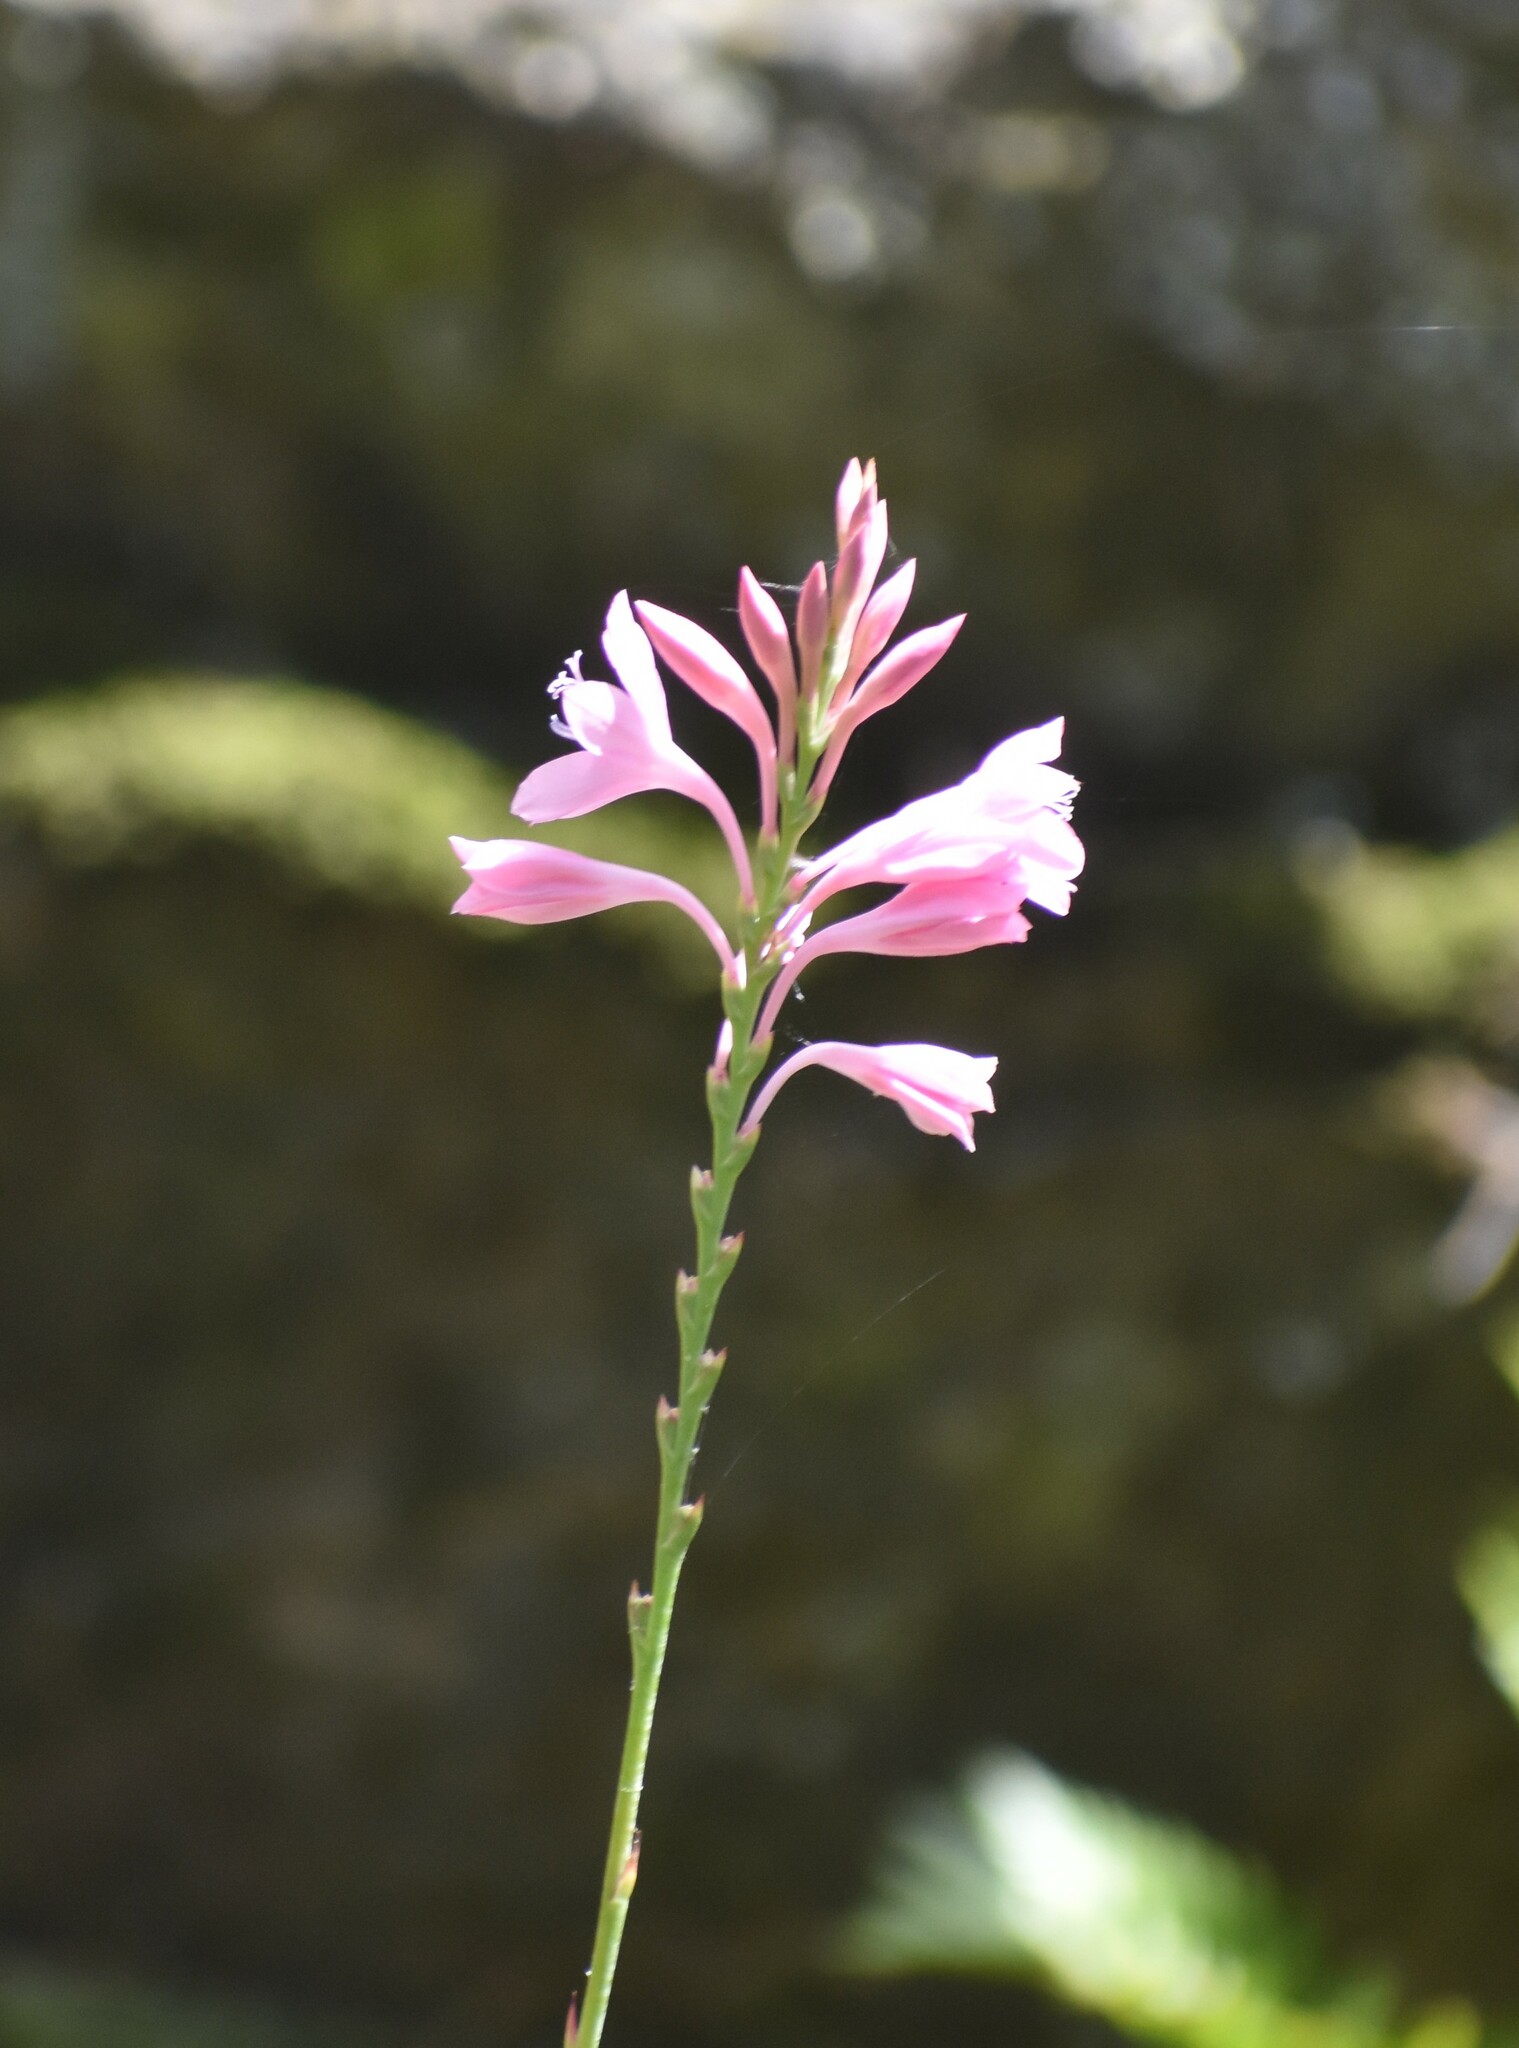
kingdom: Plantae
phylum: Tracheophyta
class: Liliopsida
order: Asparagales
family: Iridaceae
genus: Watsonia
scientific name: Watsonia knysnana
